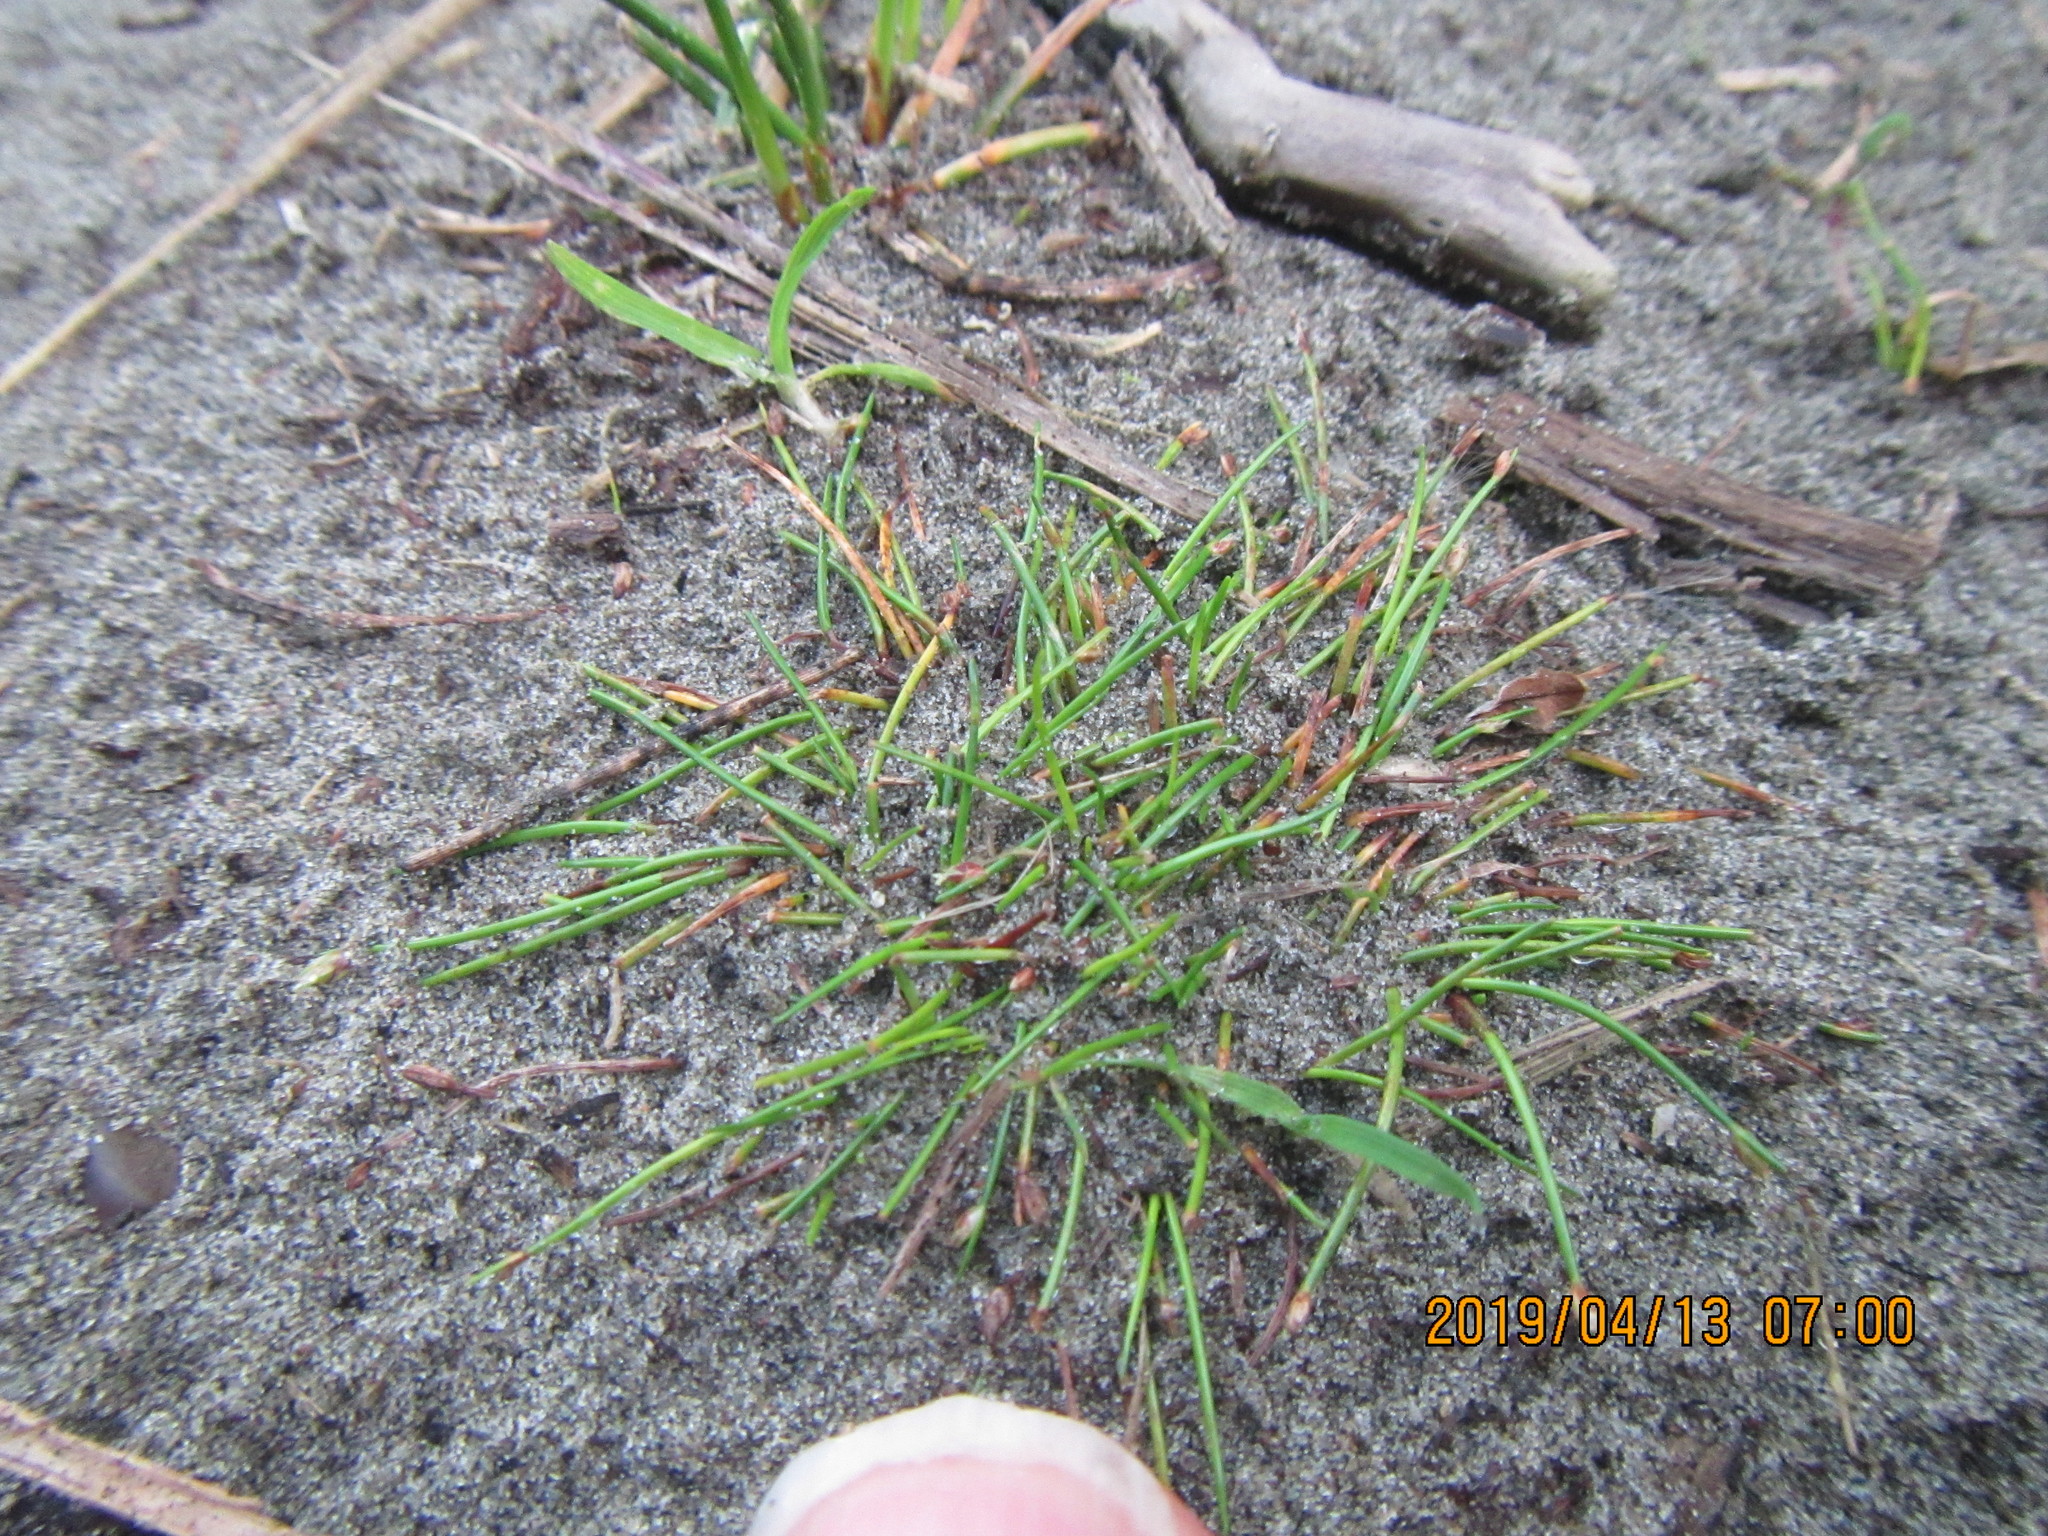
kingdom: Plantae
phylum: Tracheophyta
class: Liliopsida
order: Poales
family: Cyperaceae
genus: Isolepis
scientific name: Isolepis cernua
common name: Slender club-rush
